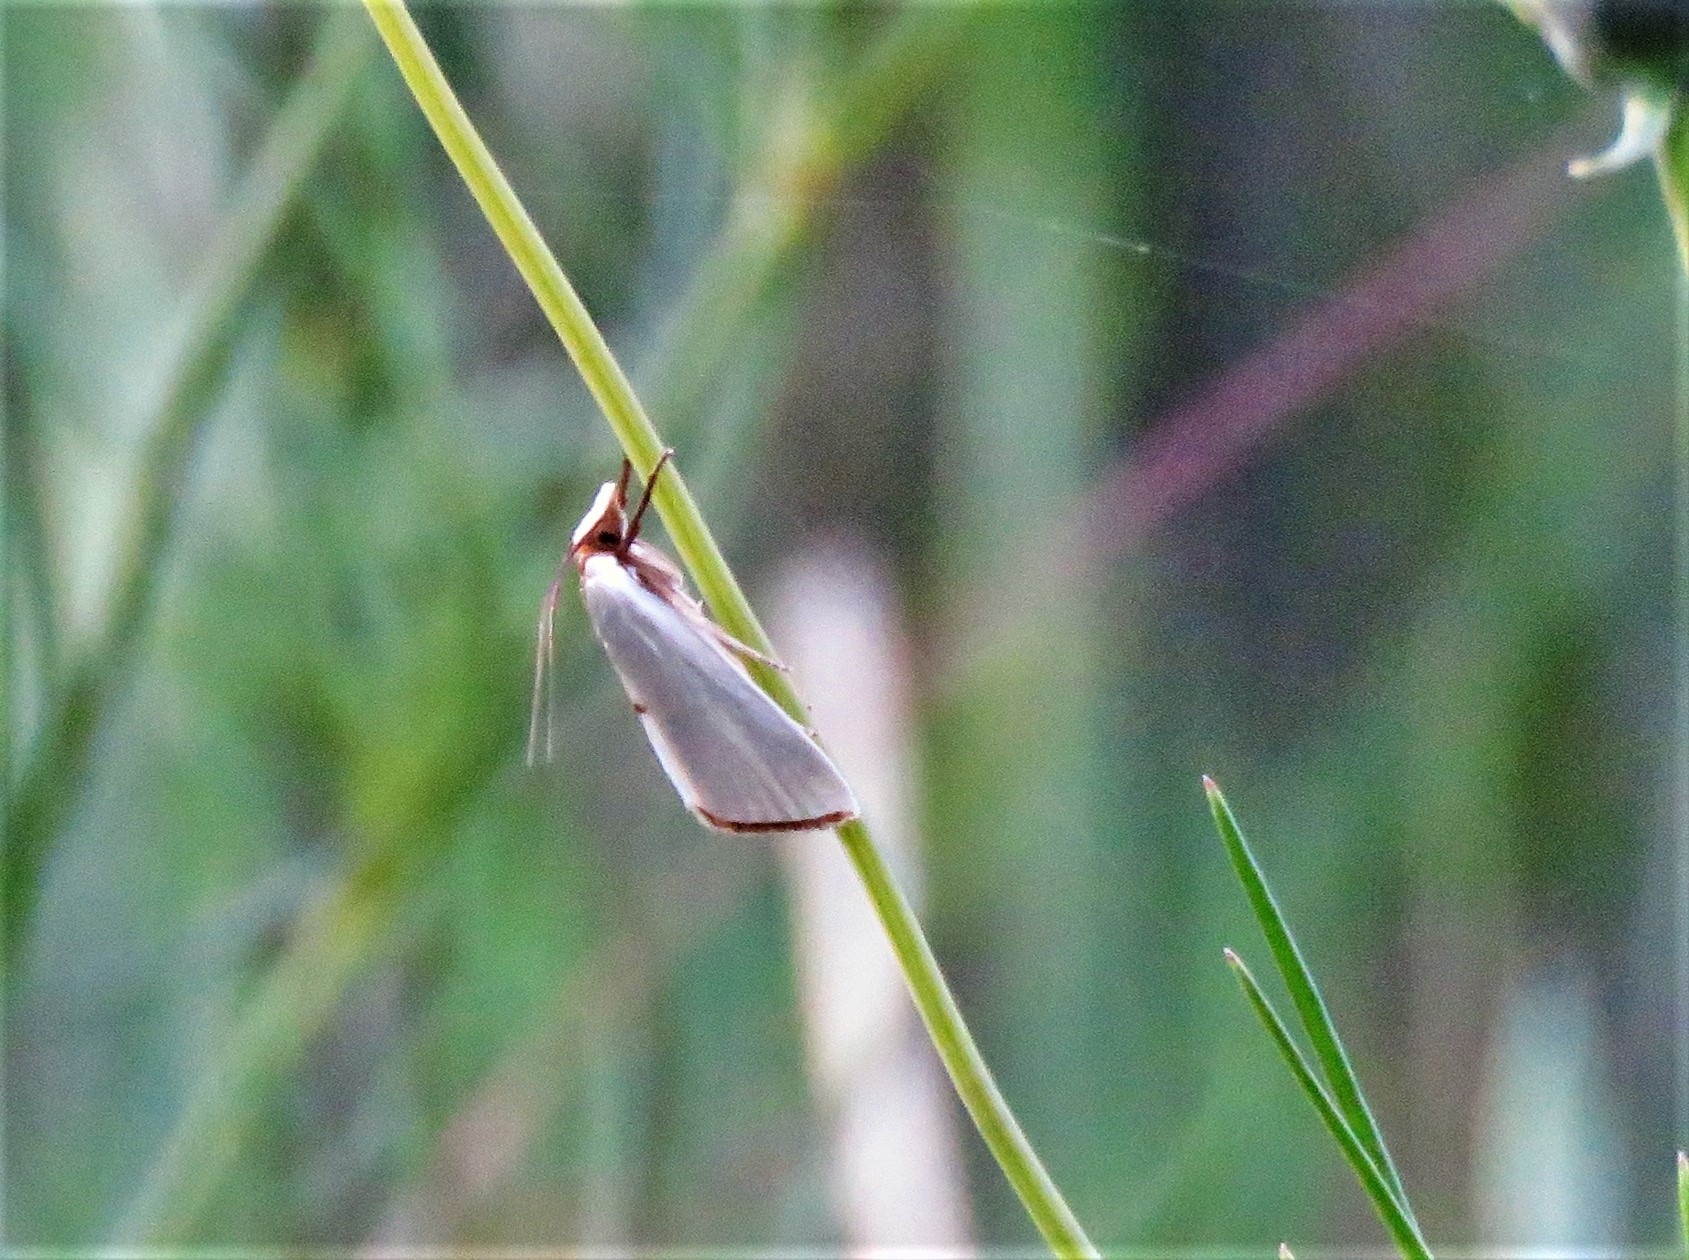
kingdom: Animalia
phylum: Arthropoda
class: Insecta
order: Lepidoptera
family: Crambidae
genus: Argyria
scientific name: Argyria nivalis
